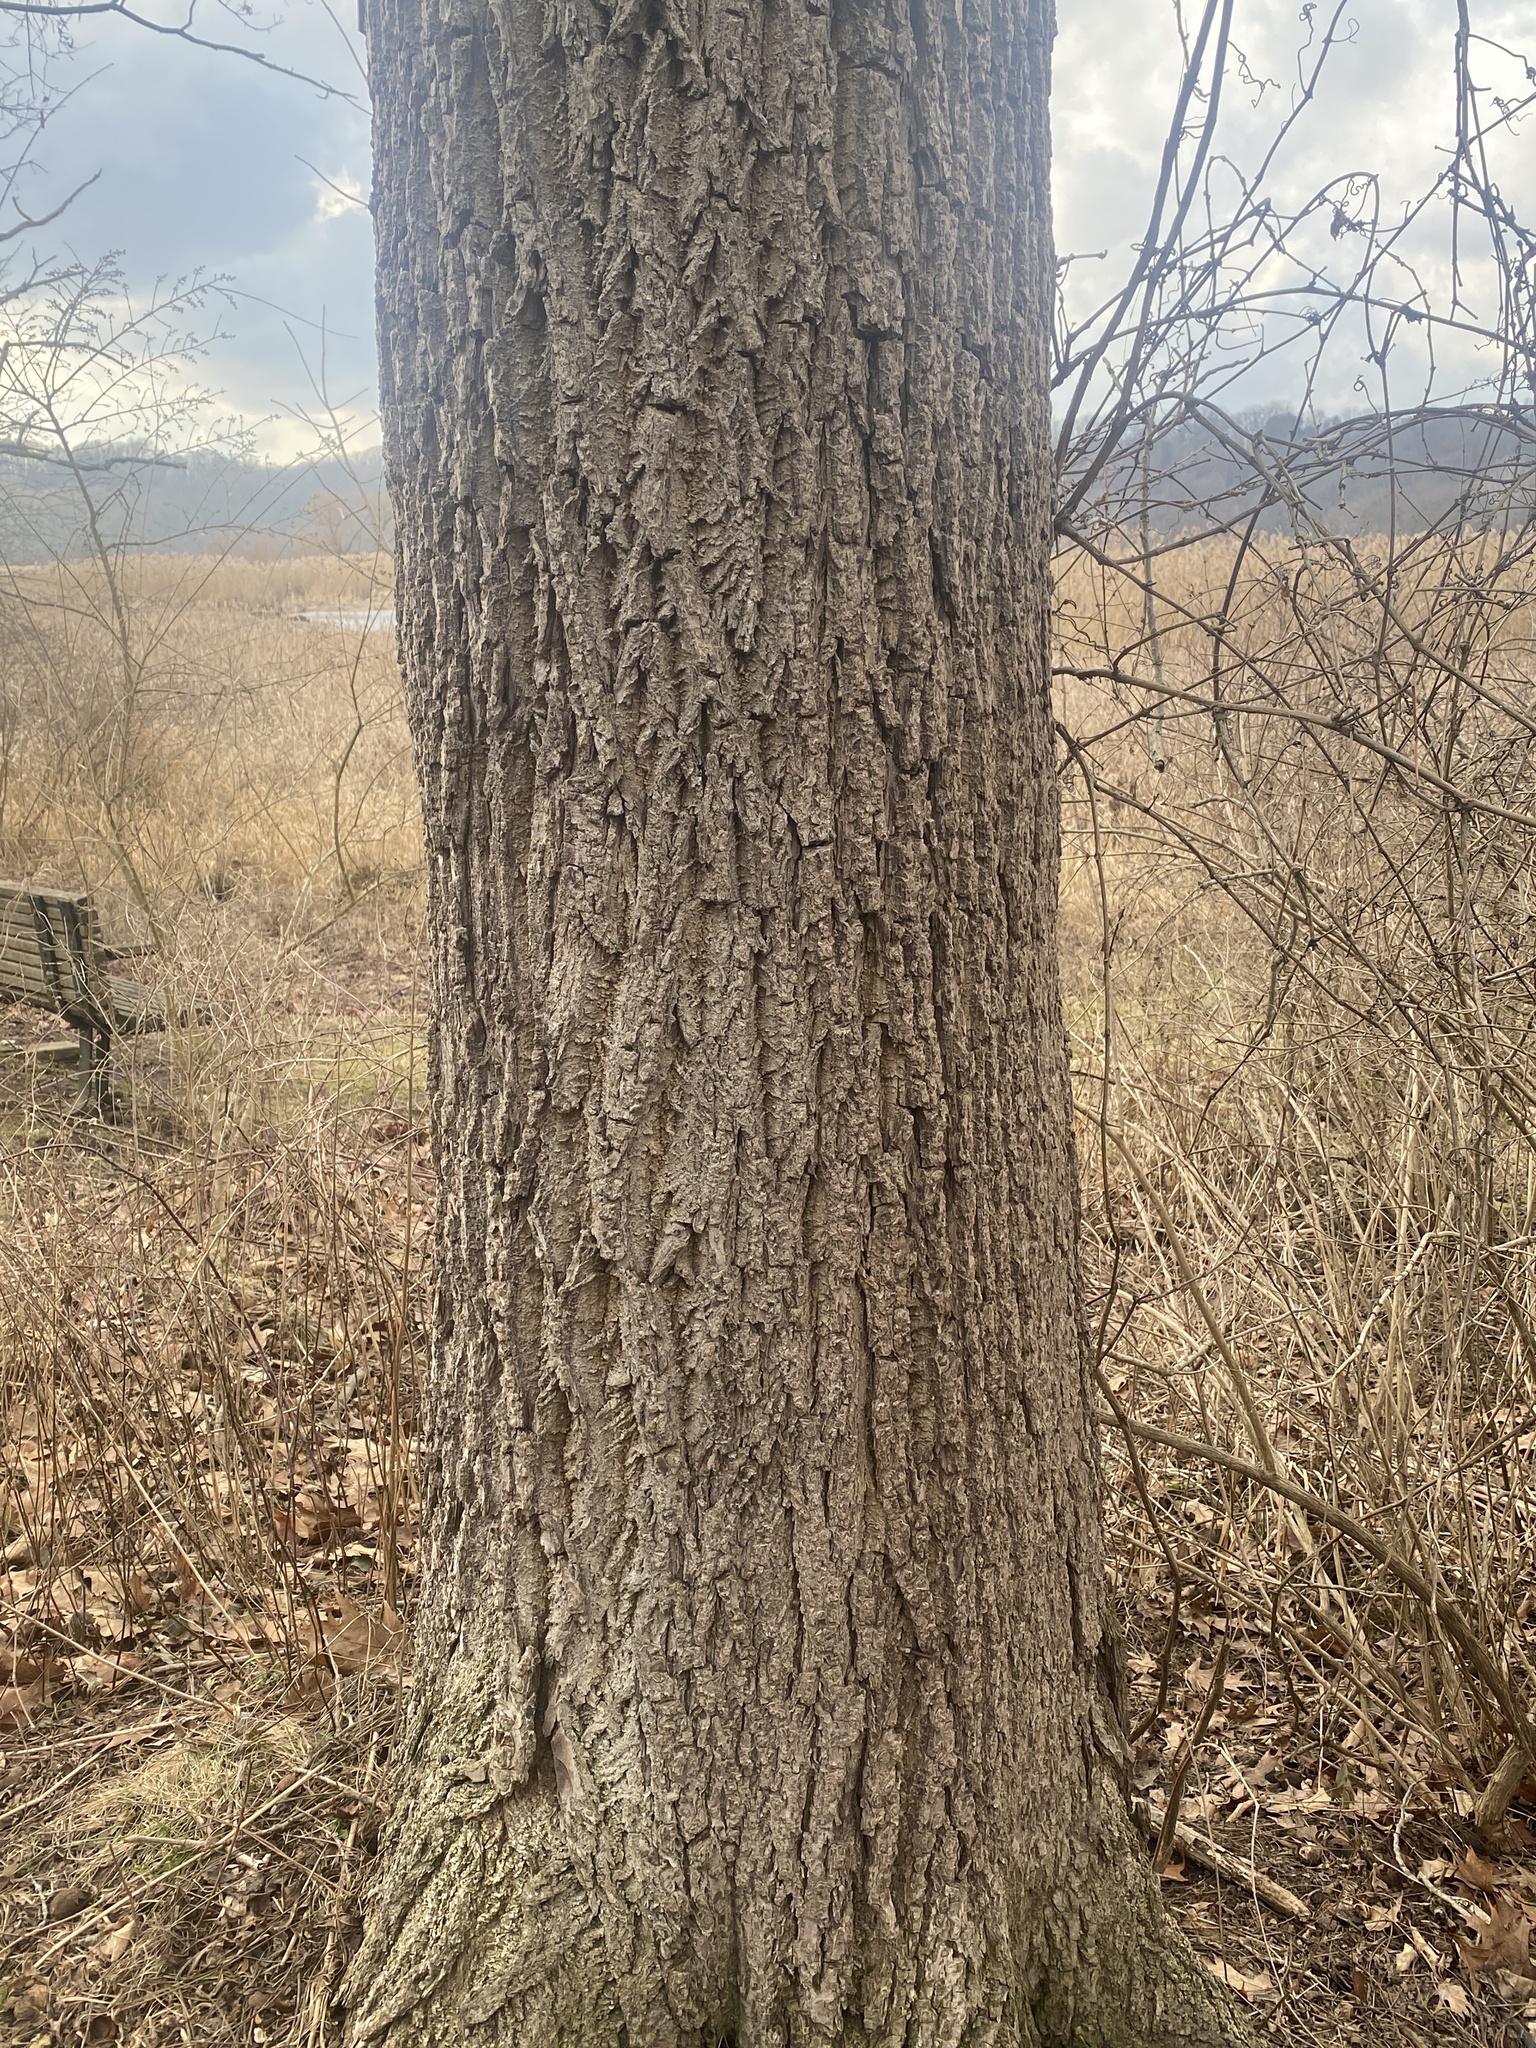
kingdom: Plantae
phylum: Tracheophyta
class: Magnoliopsida
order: Fagales
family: Juglandaceae
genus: Juglans
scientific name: Juglans nigra
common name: Black walnut
